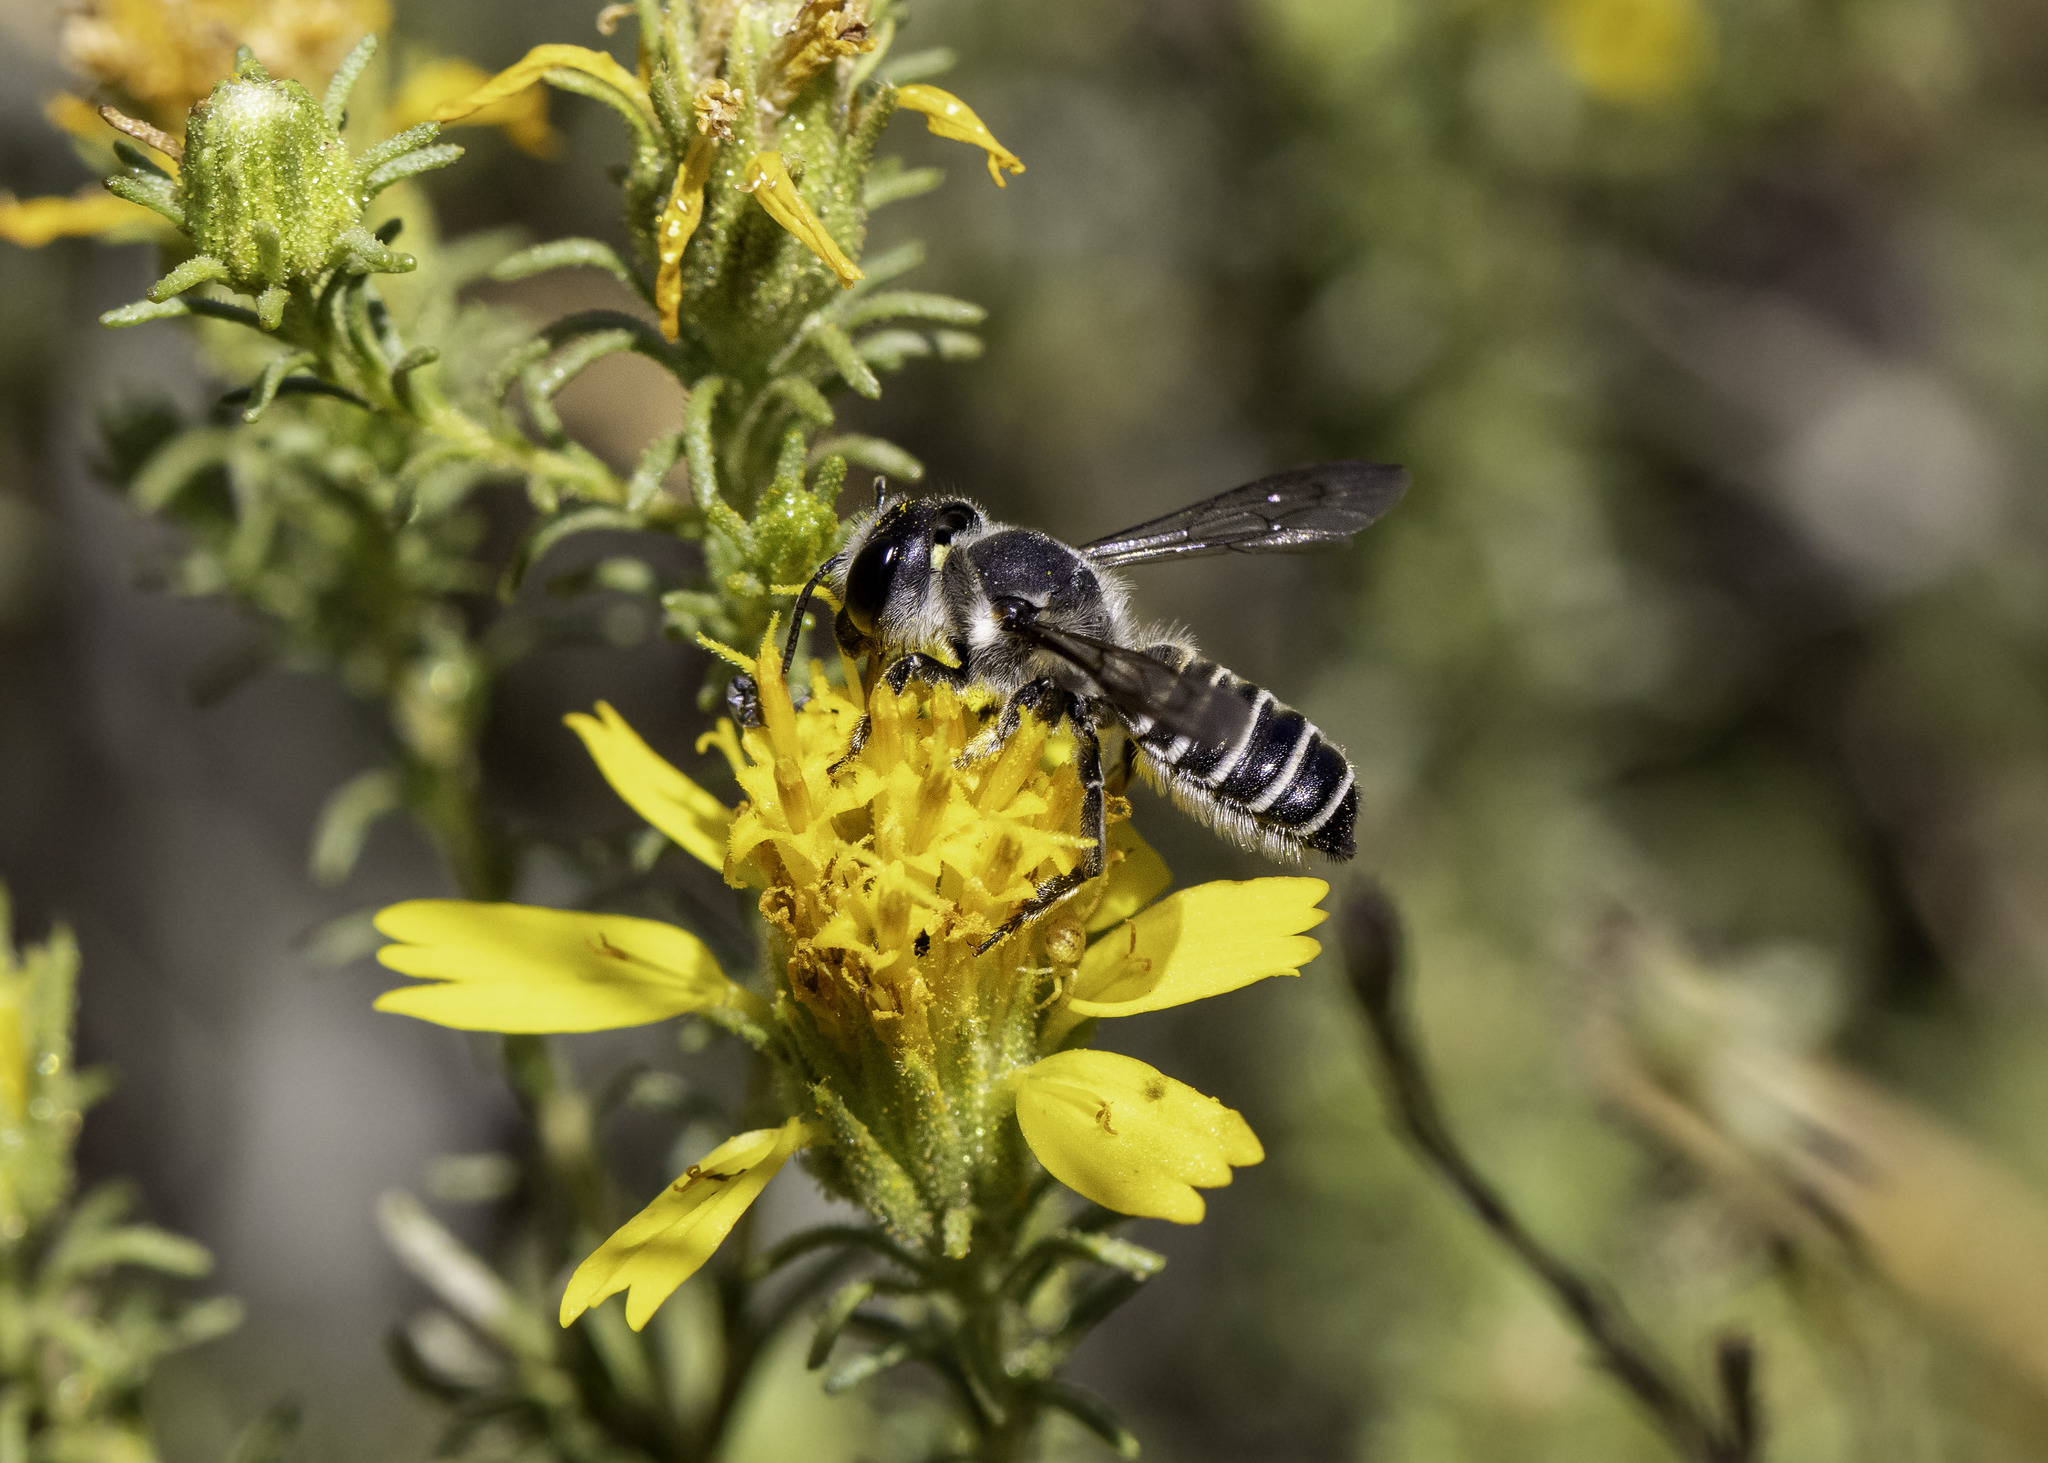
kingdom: Animalia
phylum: Arthropoda
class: Insecta
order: Hymenoptera
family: Megachilidae
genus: Megachile
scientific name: Megachile frugalis
